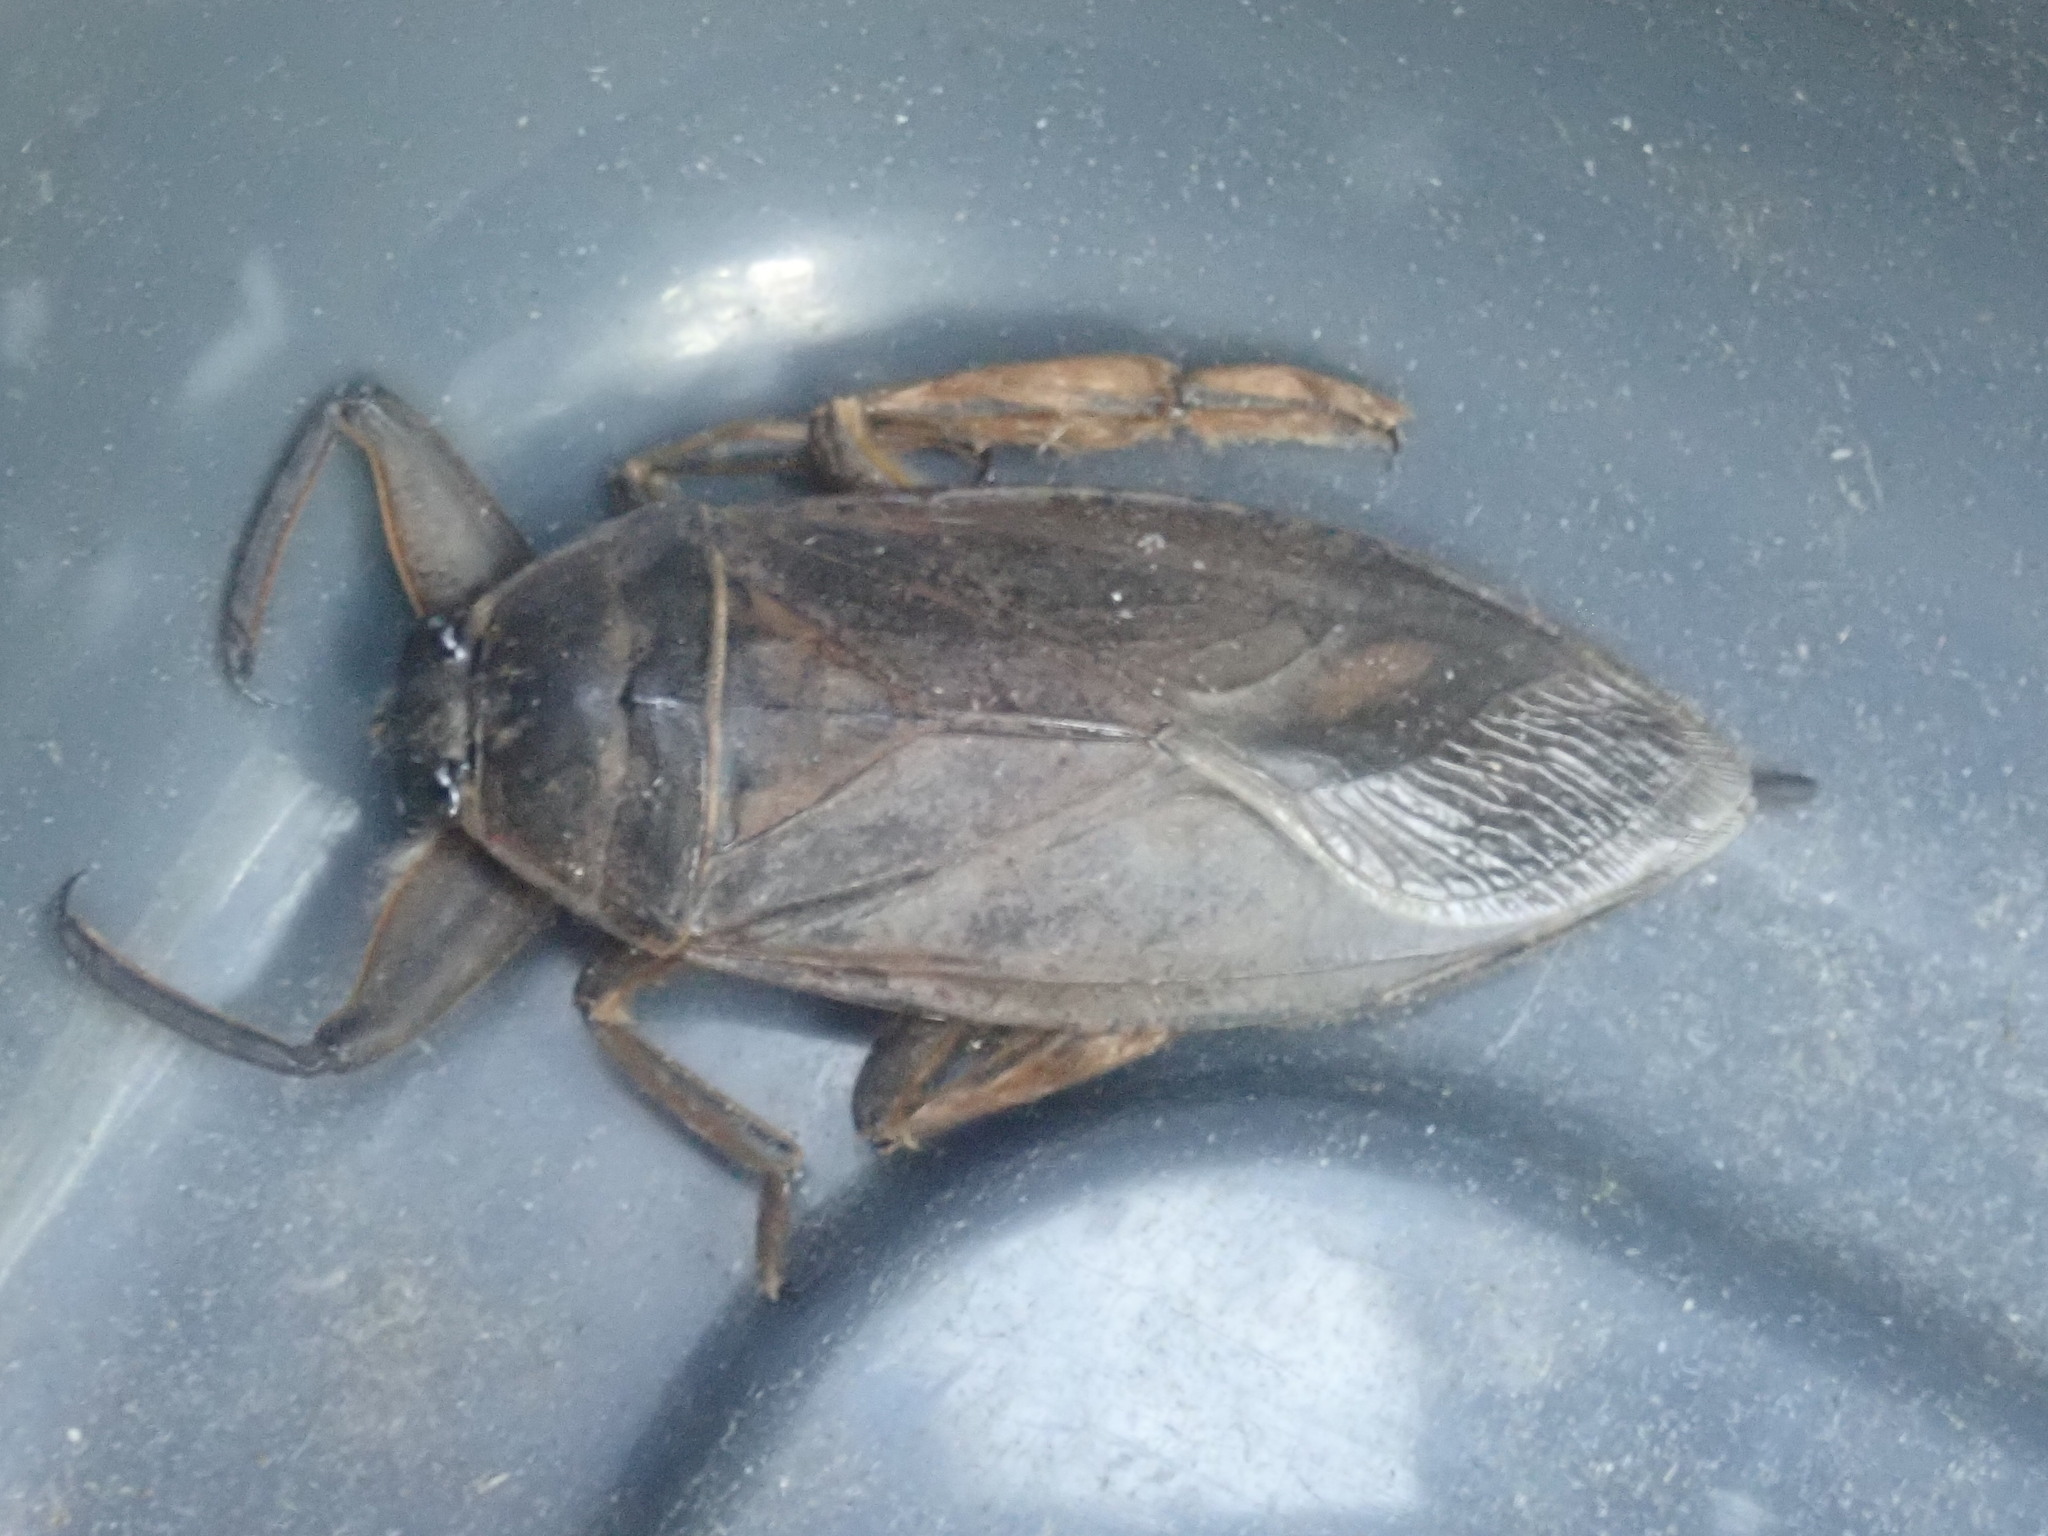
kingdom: Animalia
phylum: Arthropoda
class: Insecta
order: Hemiptera
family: Belostomatidae
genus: Lethocerus
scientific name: Lethocerus americanus
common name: Giant water bug
